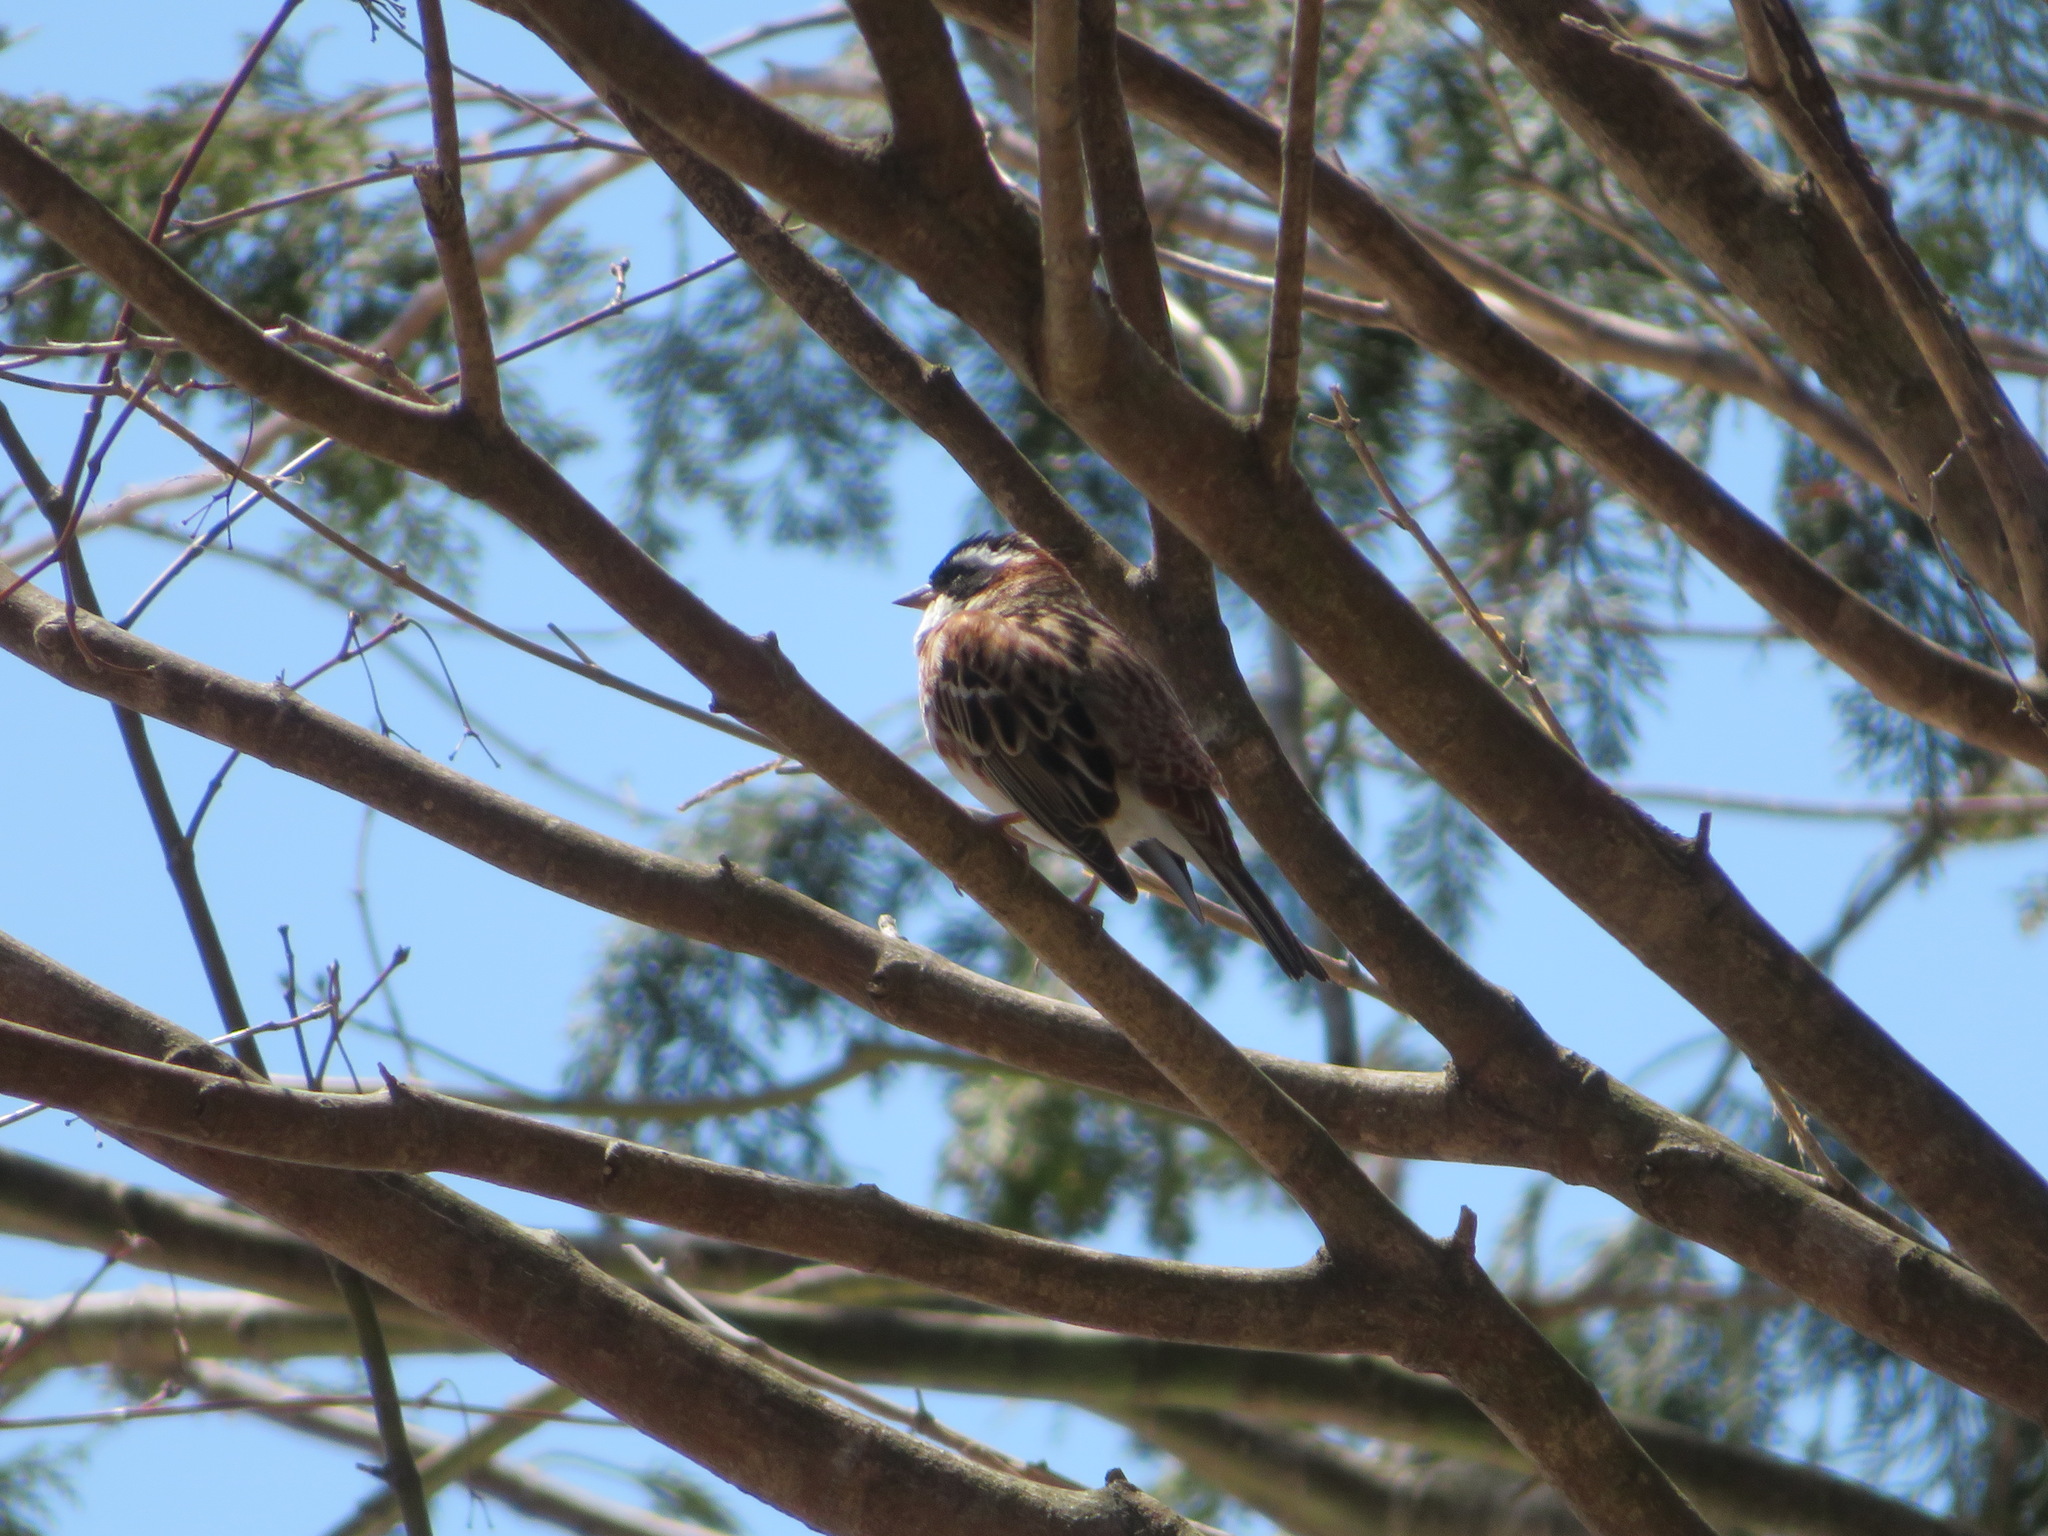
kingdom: Animalia
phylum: Chordata
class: Aves
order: Passeriformes
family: Emberizidae
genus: Emberiza
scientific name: Emberiza rustica
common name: Rustic bunting
